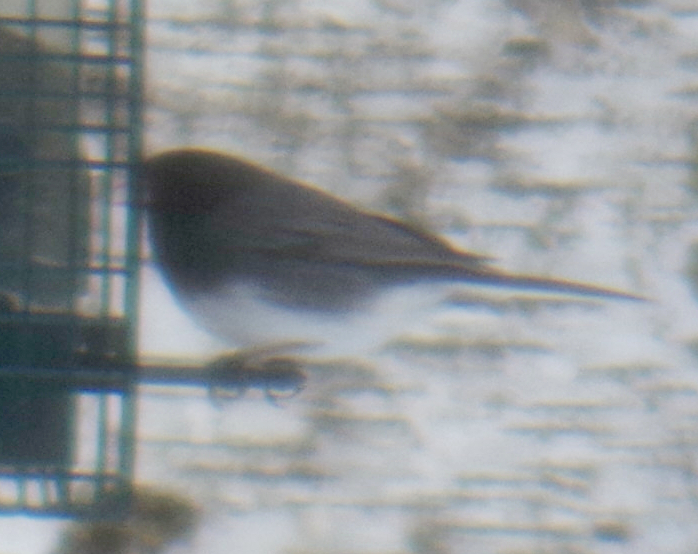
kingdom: Animalia
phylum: Chordata
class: Aves
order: Passeriformes
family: Passerellidae
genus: Junco
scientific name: Junco hyemalis
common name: Dark-eyed junco
